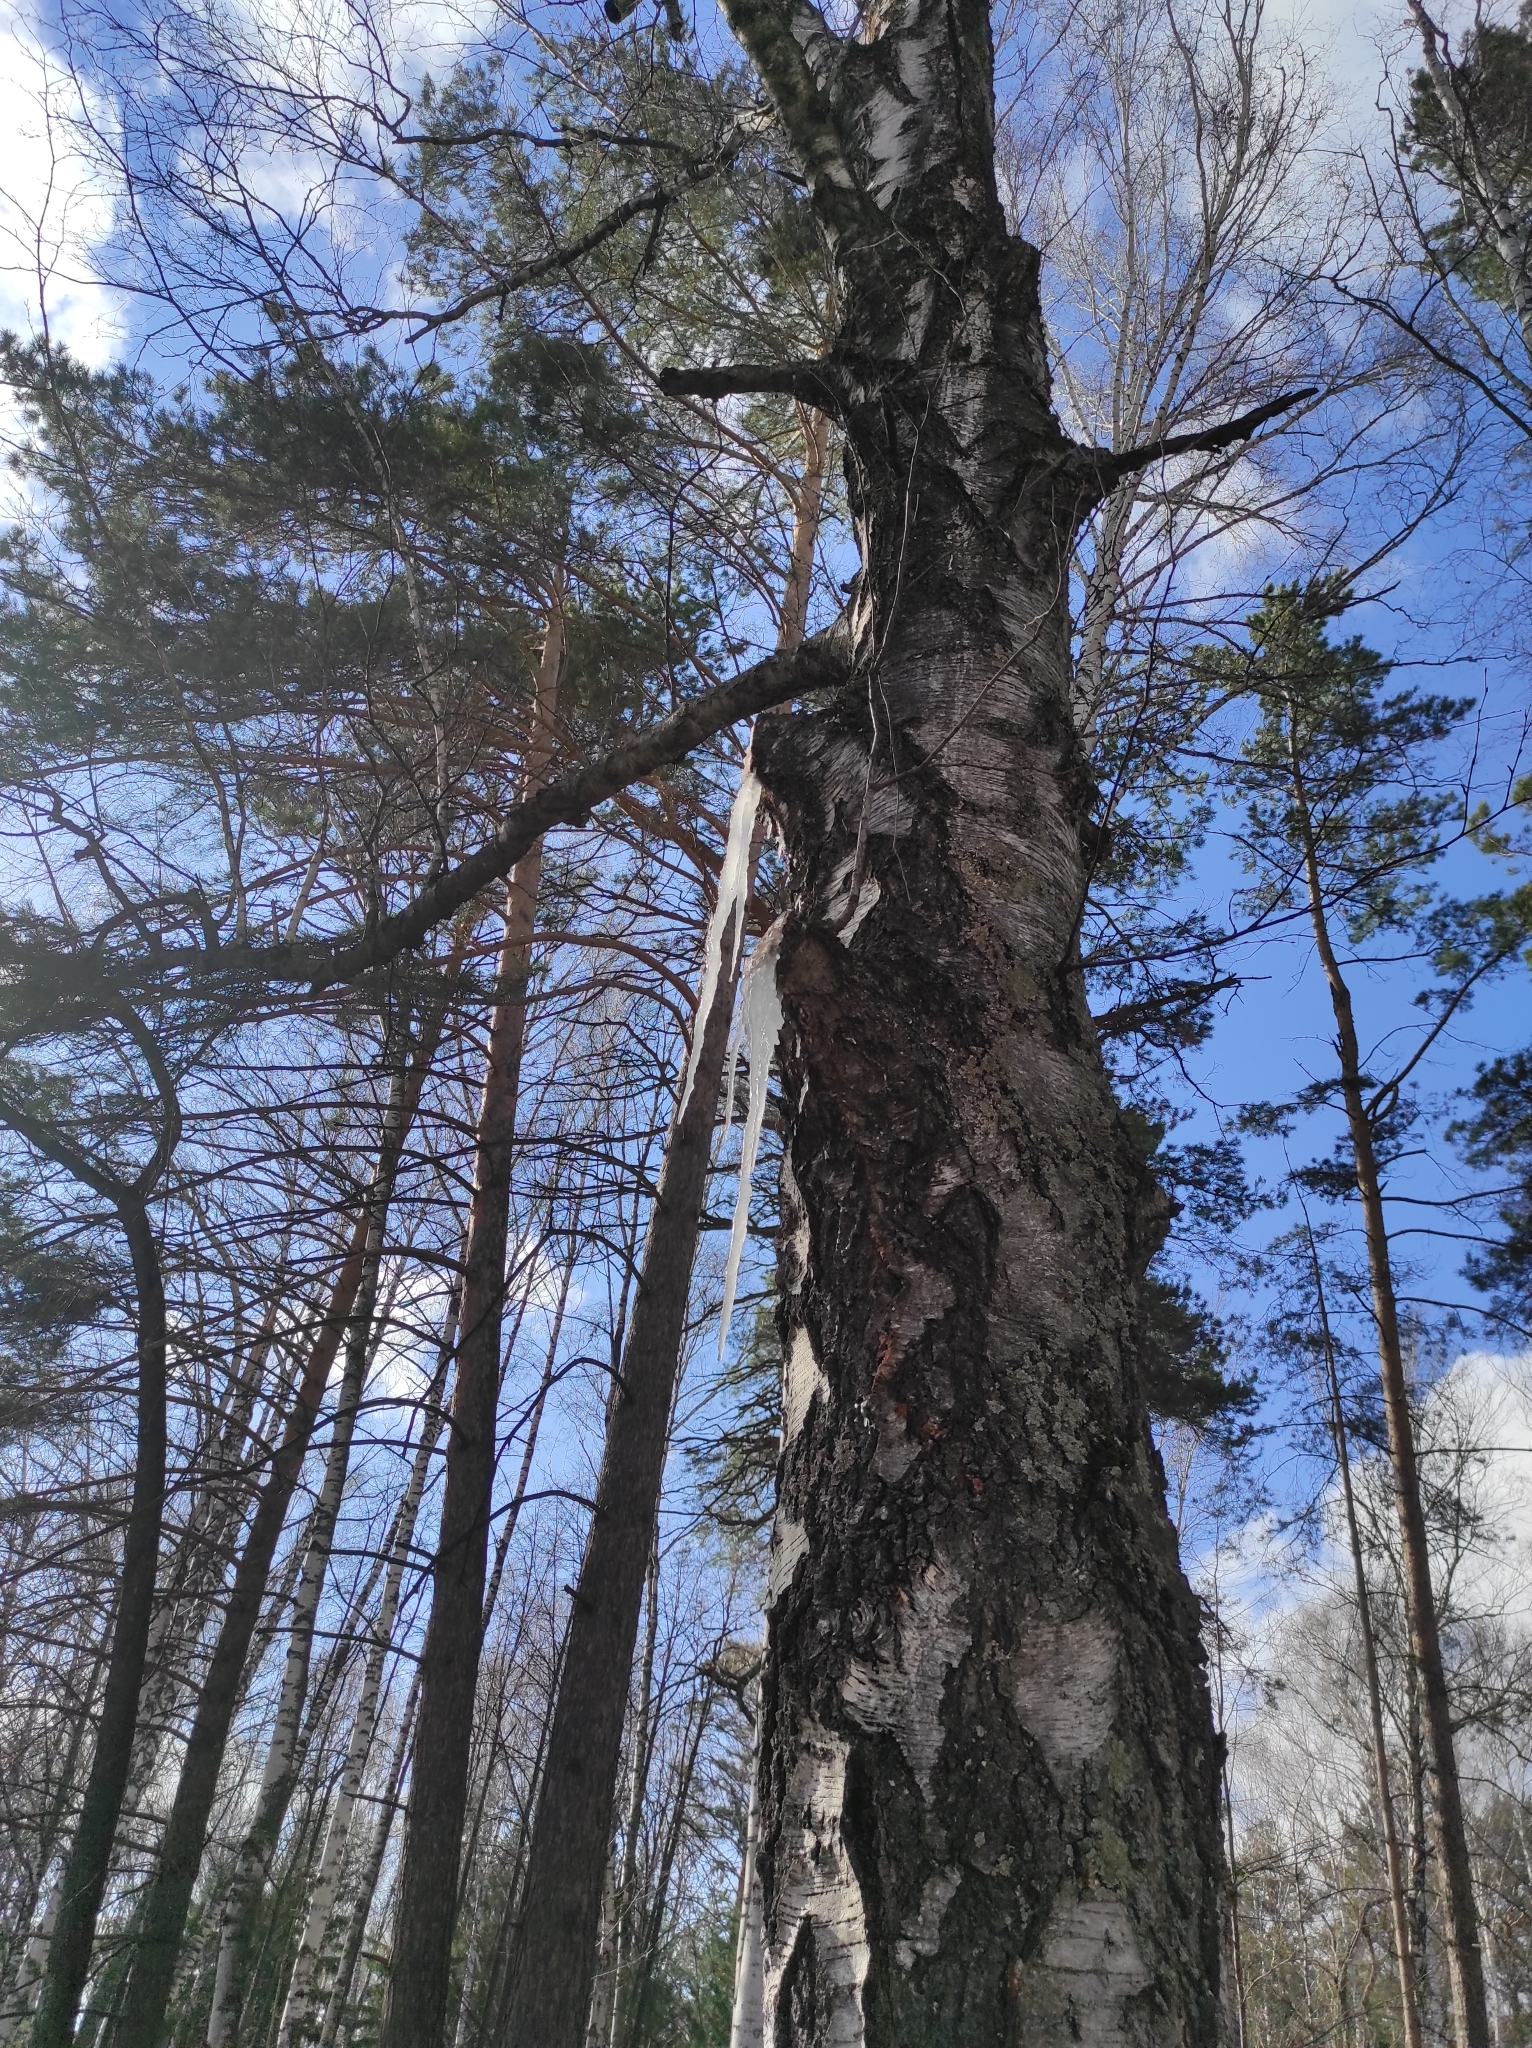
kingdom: Plantae
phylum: Tracheophyta
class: Magnoliopsida
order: Fagales
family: Betulaceae
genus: Betula
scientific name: Betula pendula
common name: Silver birch
